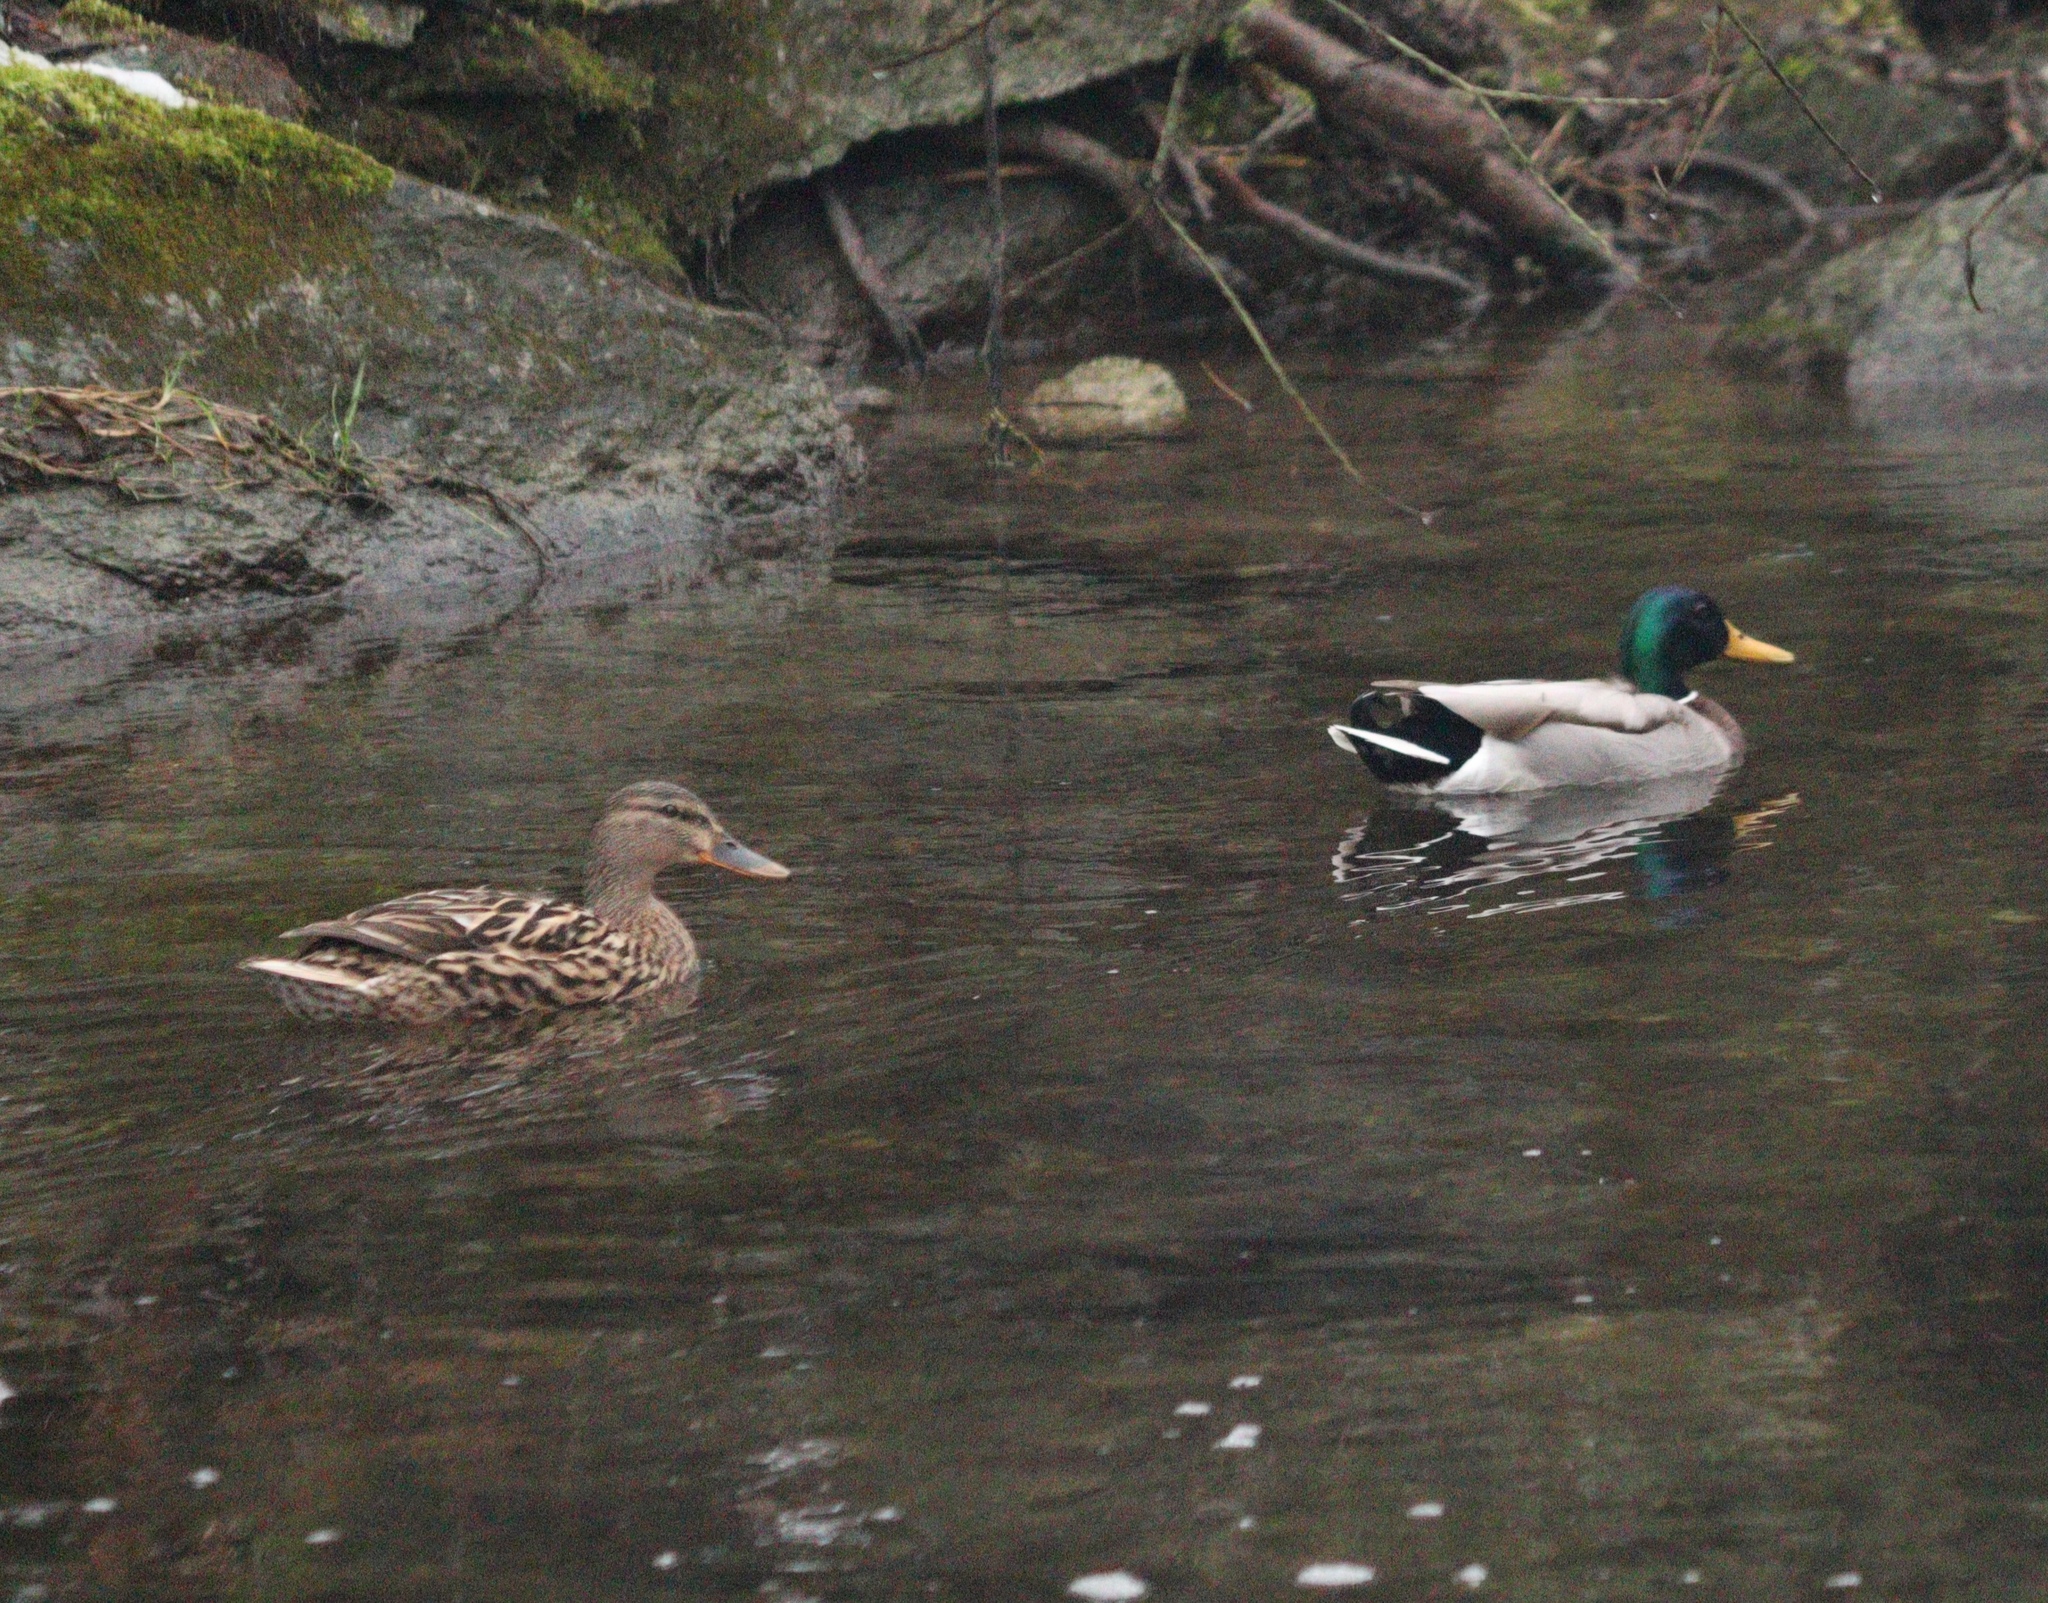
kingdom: Animalia
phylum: Chordata
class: Aves
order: Anseriformes
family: Anatidae
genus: Anas
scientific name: Anas platyrhynchos
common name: Mallard
